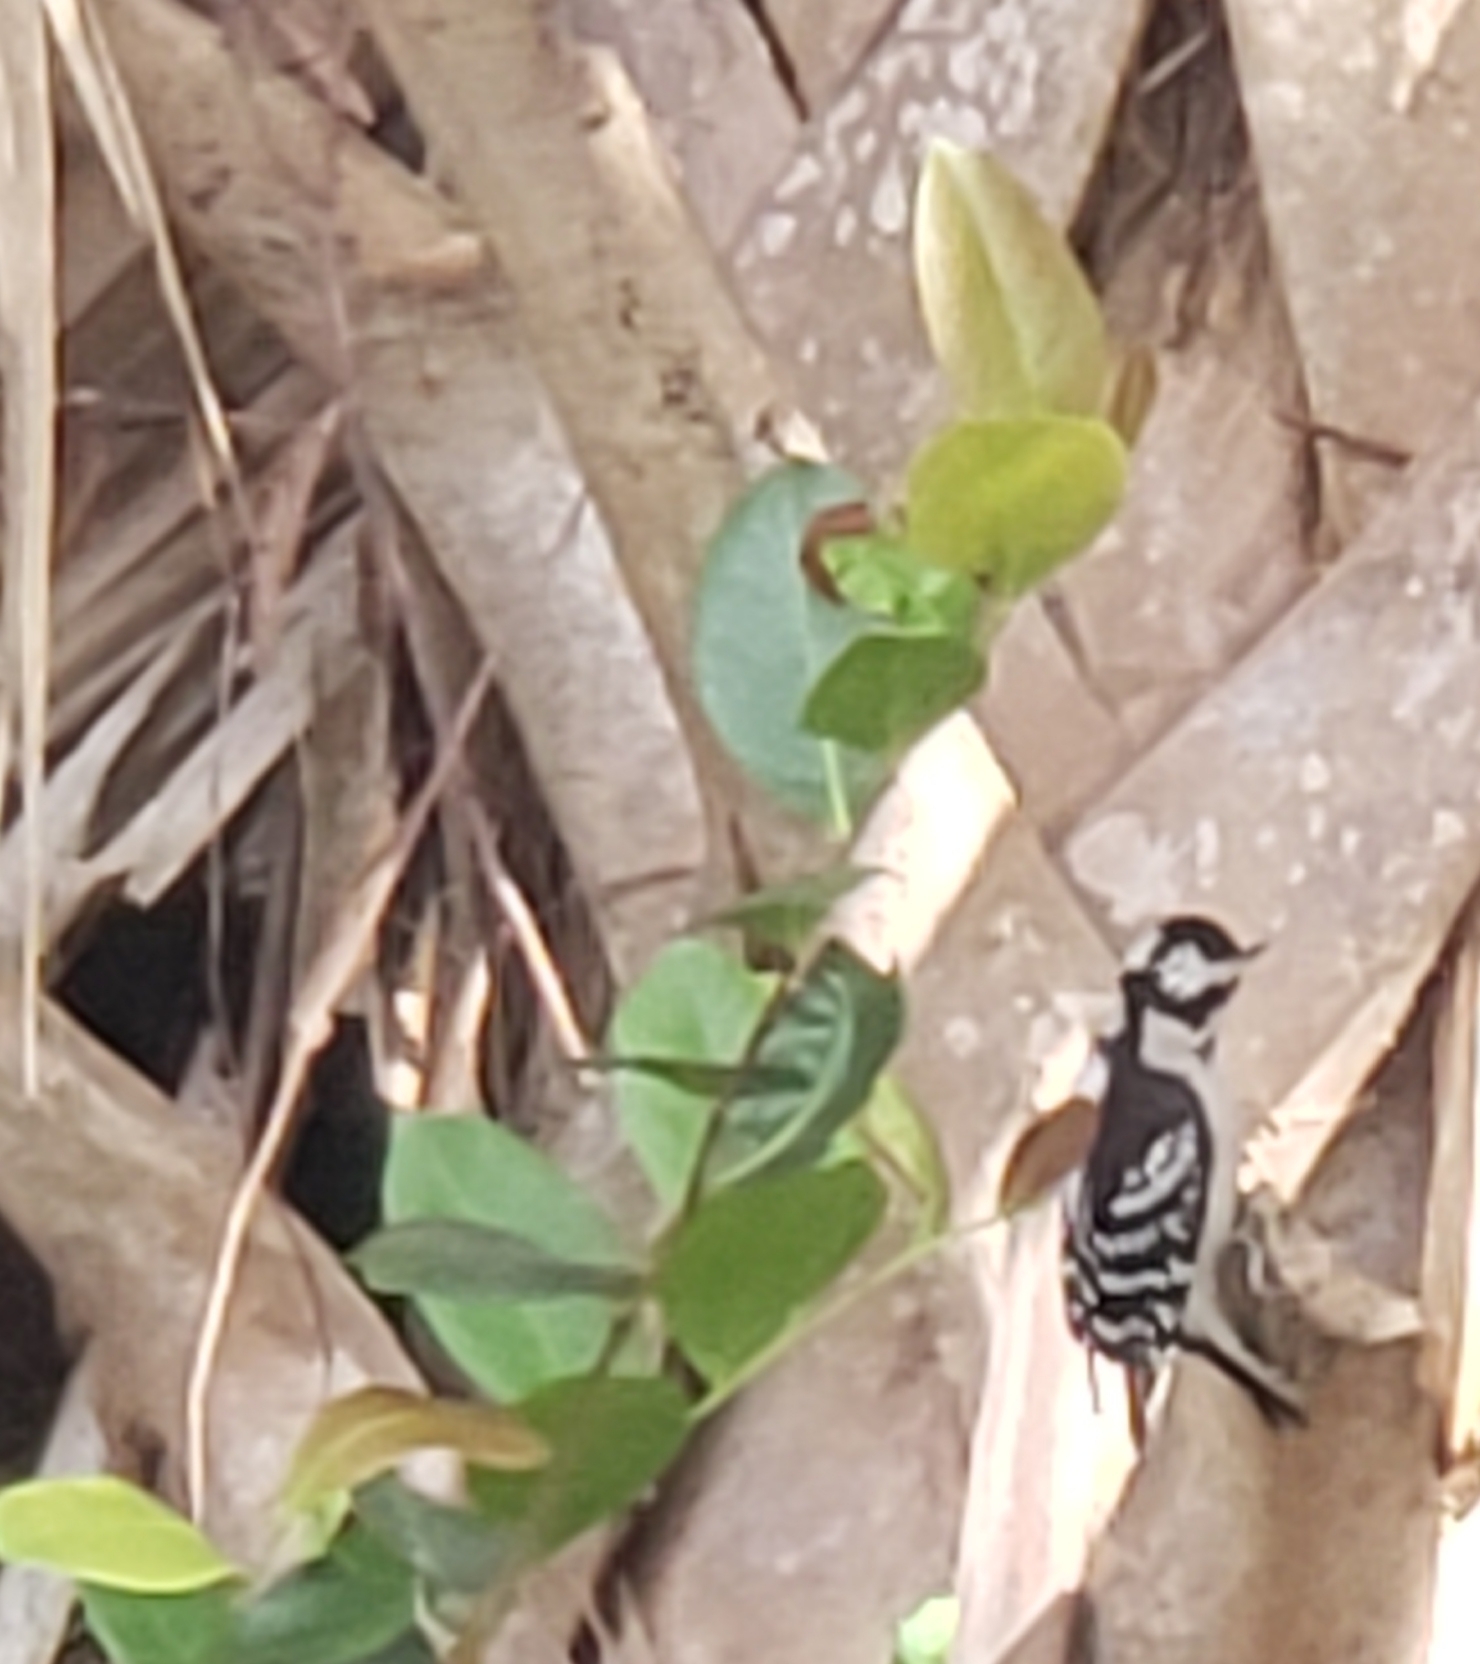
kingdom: Animalia
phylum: Chordata
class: Aves
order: Piciformes
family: Picidae
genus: Dryobates
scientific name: Dryobates pubescens
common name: Downy woodpecker
